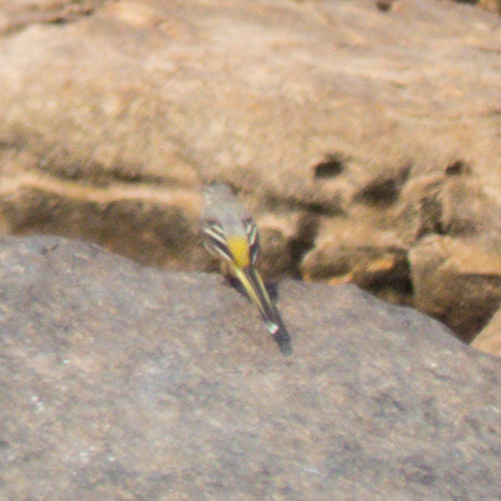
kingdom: Animalia
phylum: Chordata
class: Aves
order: Passeriformes
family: Motacillidae
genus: Motacilla
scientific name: Motacilla cinerea
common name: Grey wagtail
